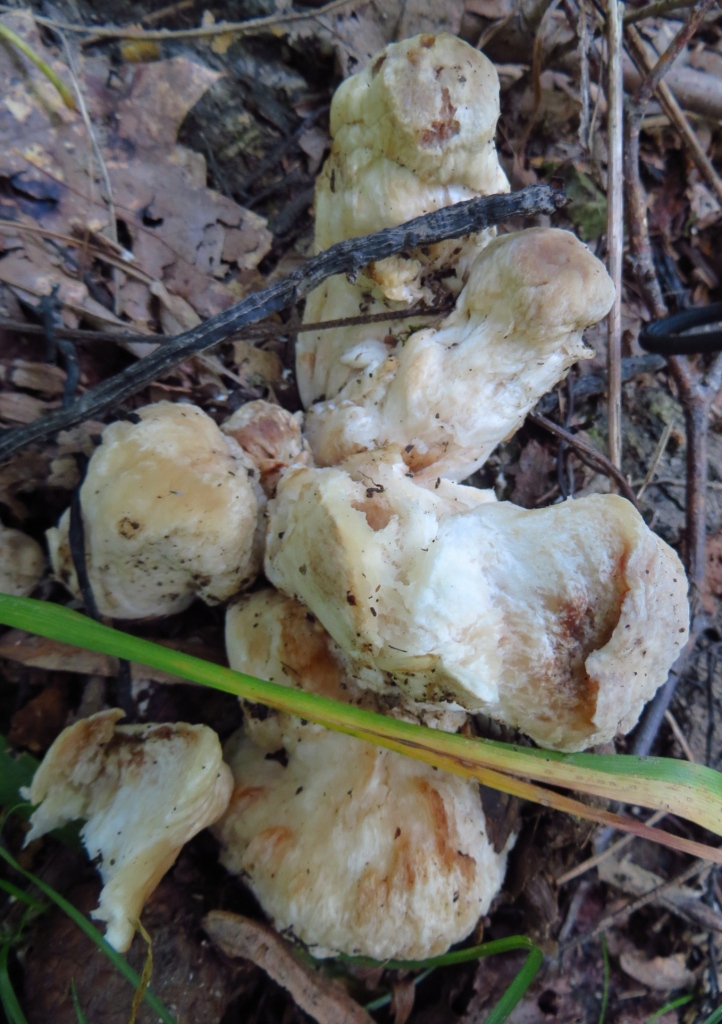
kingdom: Fungi
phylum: Basidiomycota
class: Agaricomycetes
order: Agaricales
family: Entolomataceae
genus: Entoloma
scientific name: Entoloma abortivum
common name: Aborted entoloma
